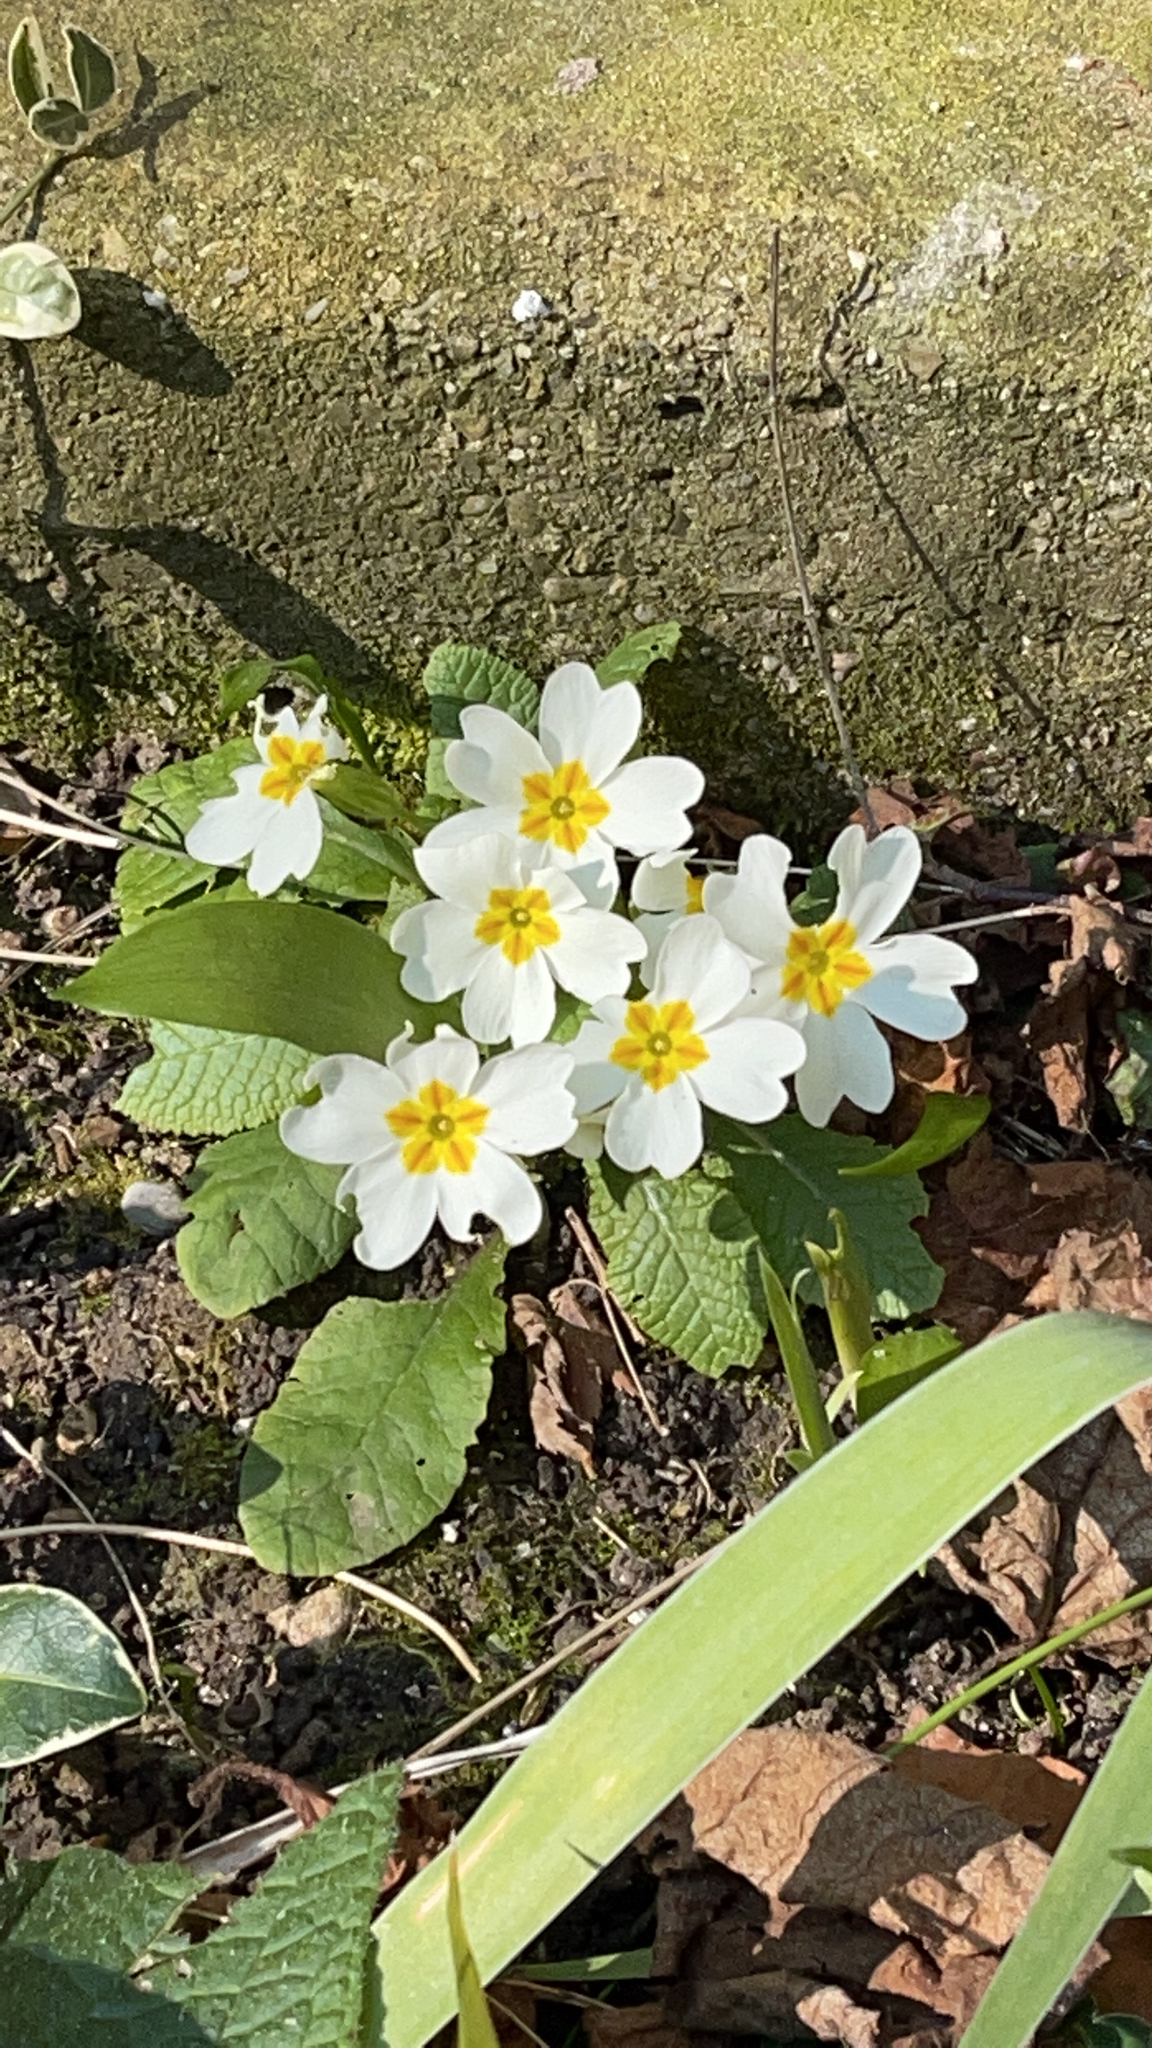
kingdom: Plantae
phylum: Tracheophyta
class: Magnoliopsida
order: Ericales
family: Primulaceae
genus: Primula
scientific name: Primula vulgaris
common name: Primrose
